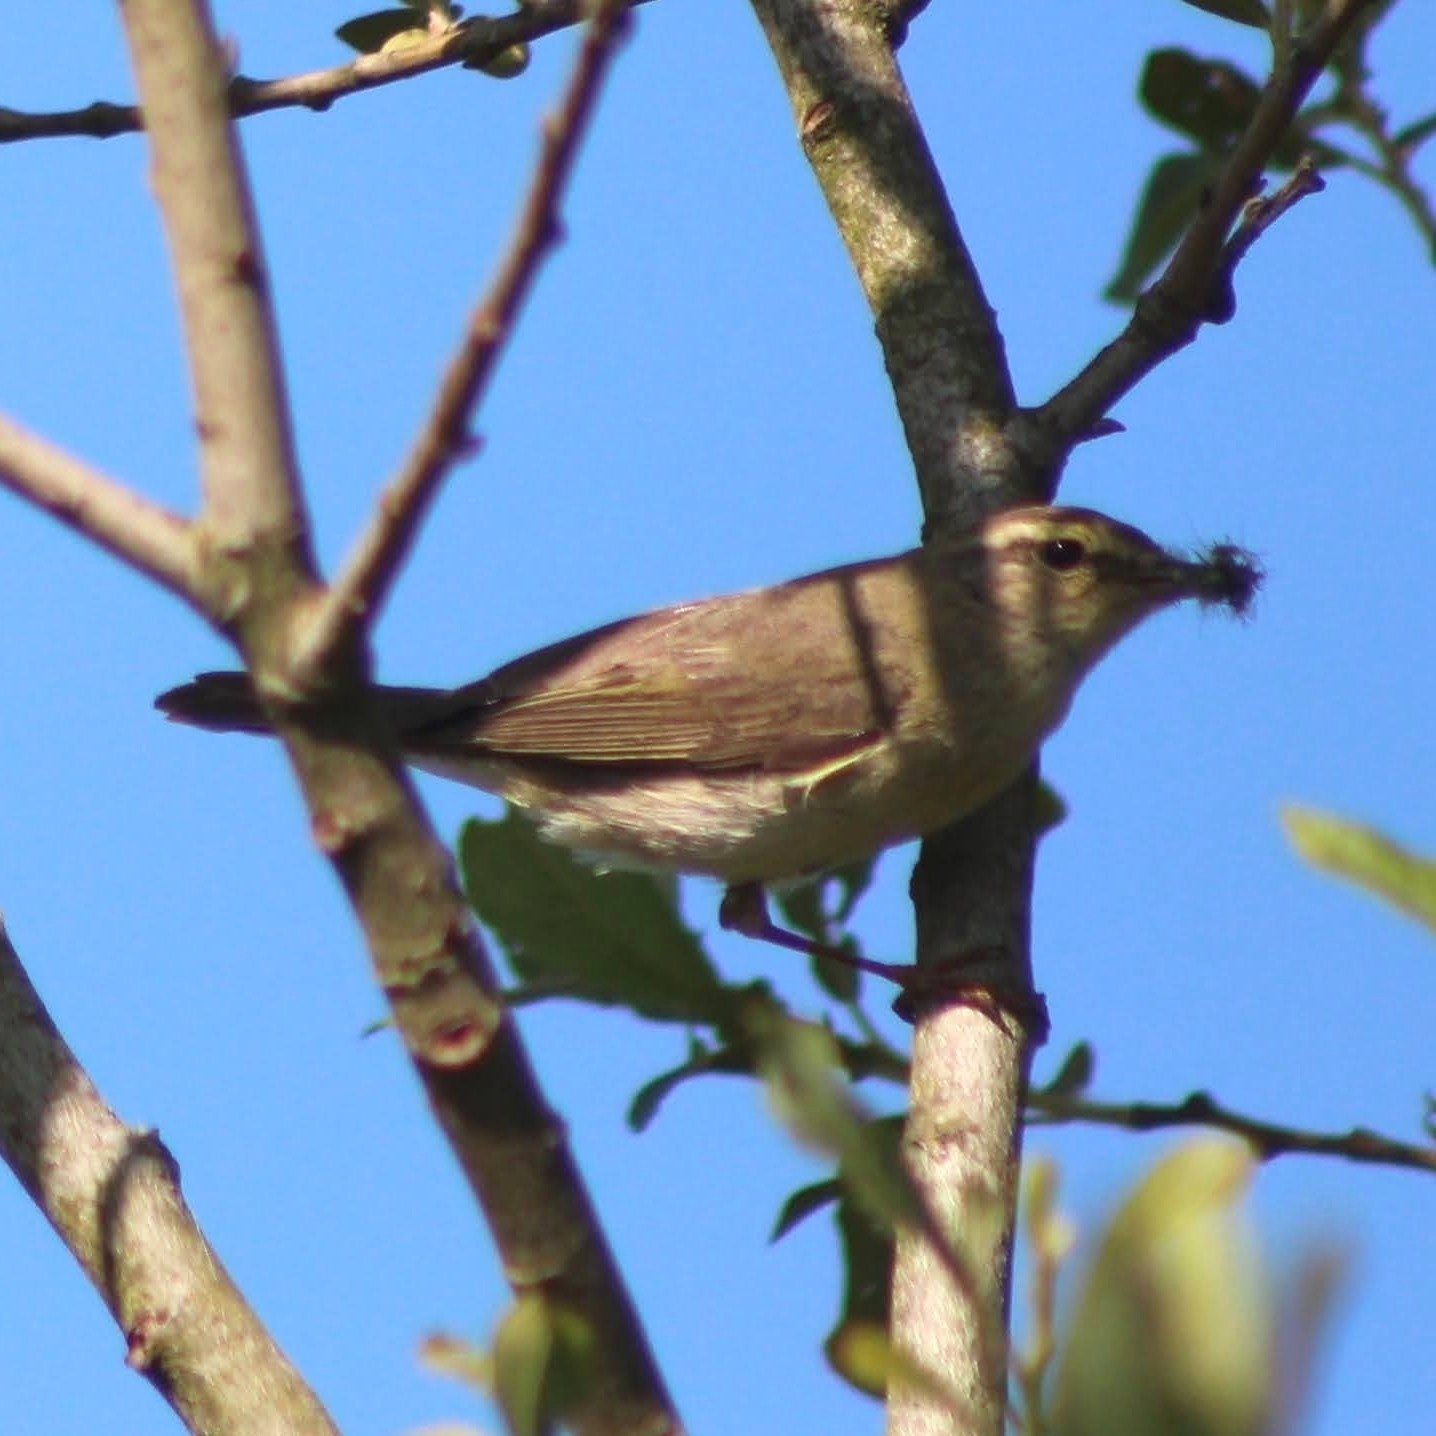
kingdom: Animalia
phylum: Chordata
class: Aves
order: Passeriformes
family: Phylloscopidae
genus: Phylloscopus
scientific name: Phylloscopus trochilus
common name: Willow warbler
